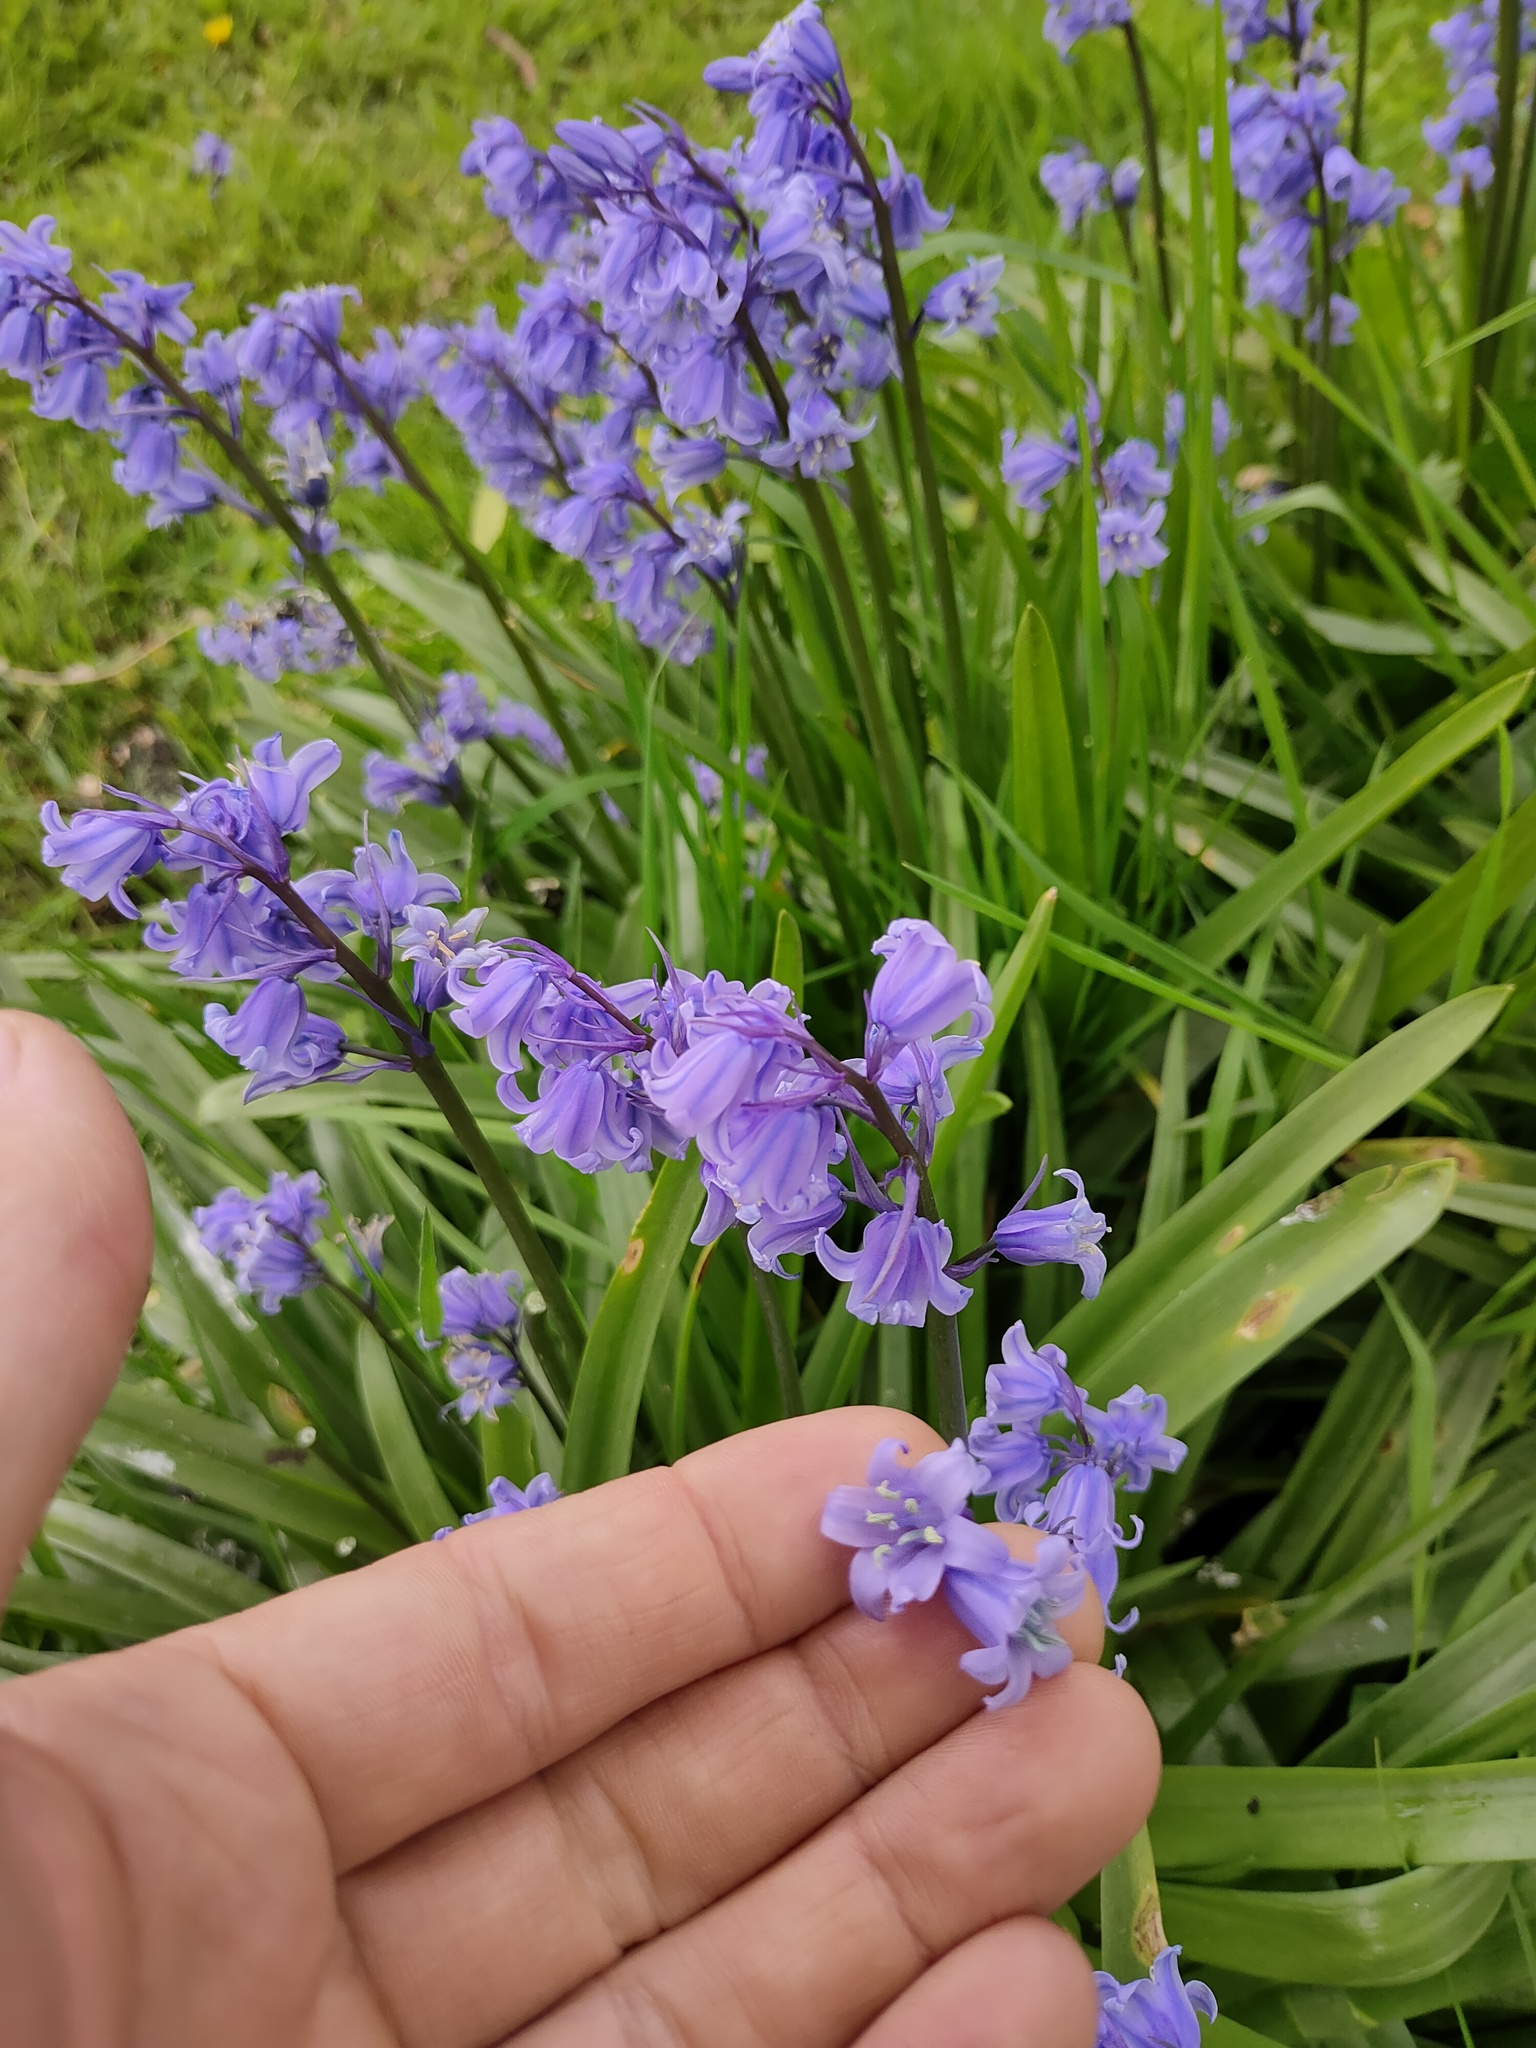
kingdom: Plantae
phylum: Tracheophyta
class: Liliopsida
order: Asparagales
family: Asparagaceae
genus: Hyacinthoides
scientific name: Hyacinthoides massartiana
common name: Hyacinthoides
